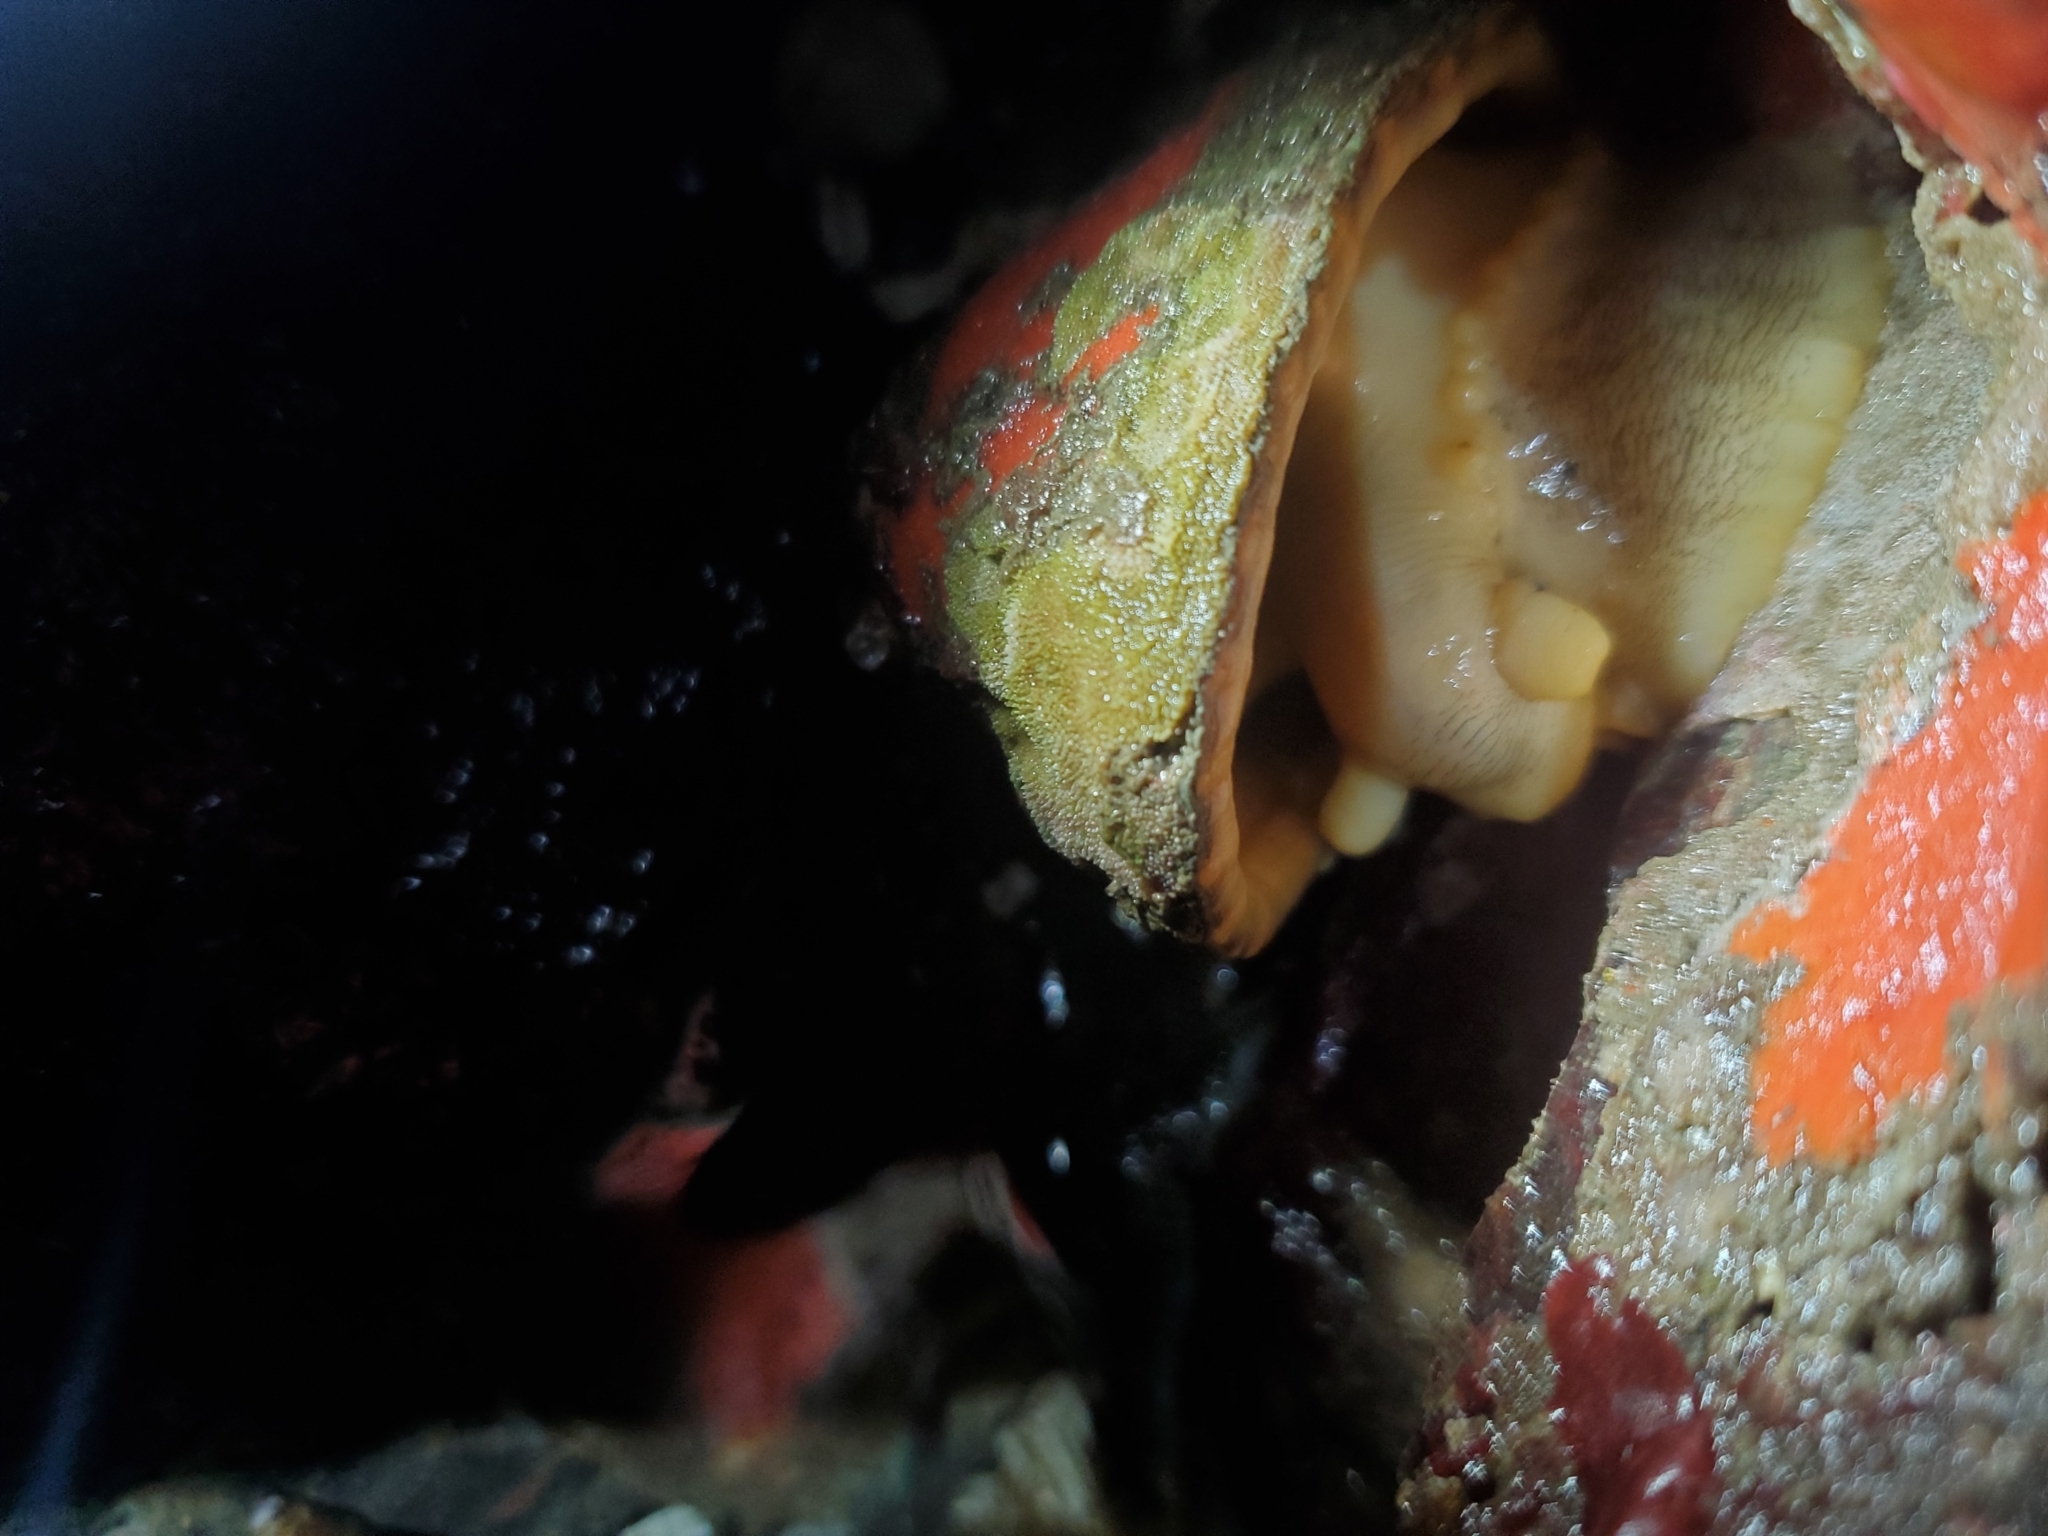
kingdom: Animalia
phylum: Mollusca
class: Gastropoda
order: Lepetellida
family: Fissurellidae
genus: Diodora
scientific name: Diodora aspera
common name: Rough keyhole limpet
